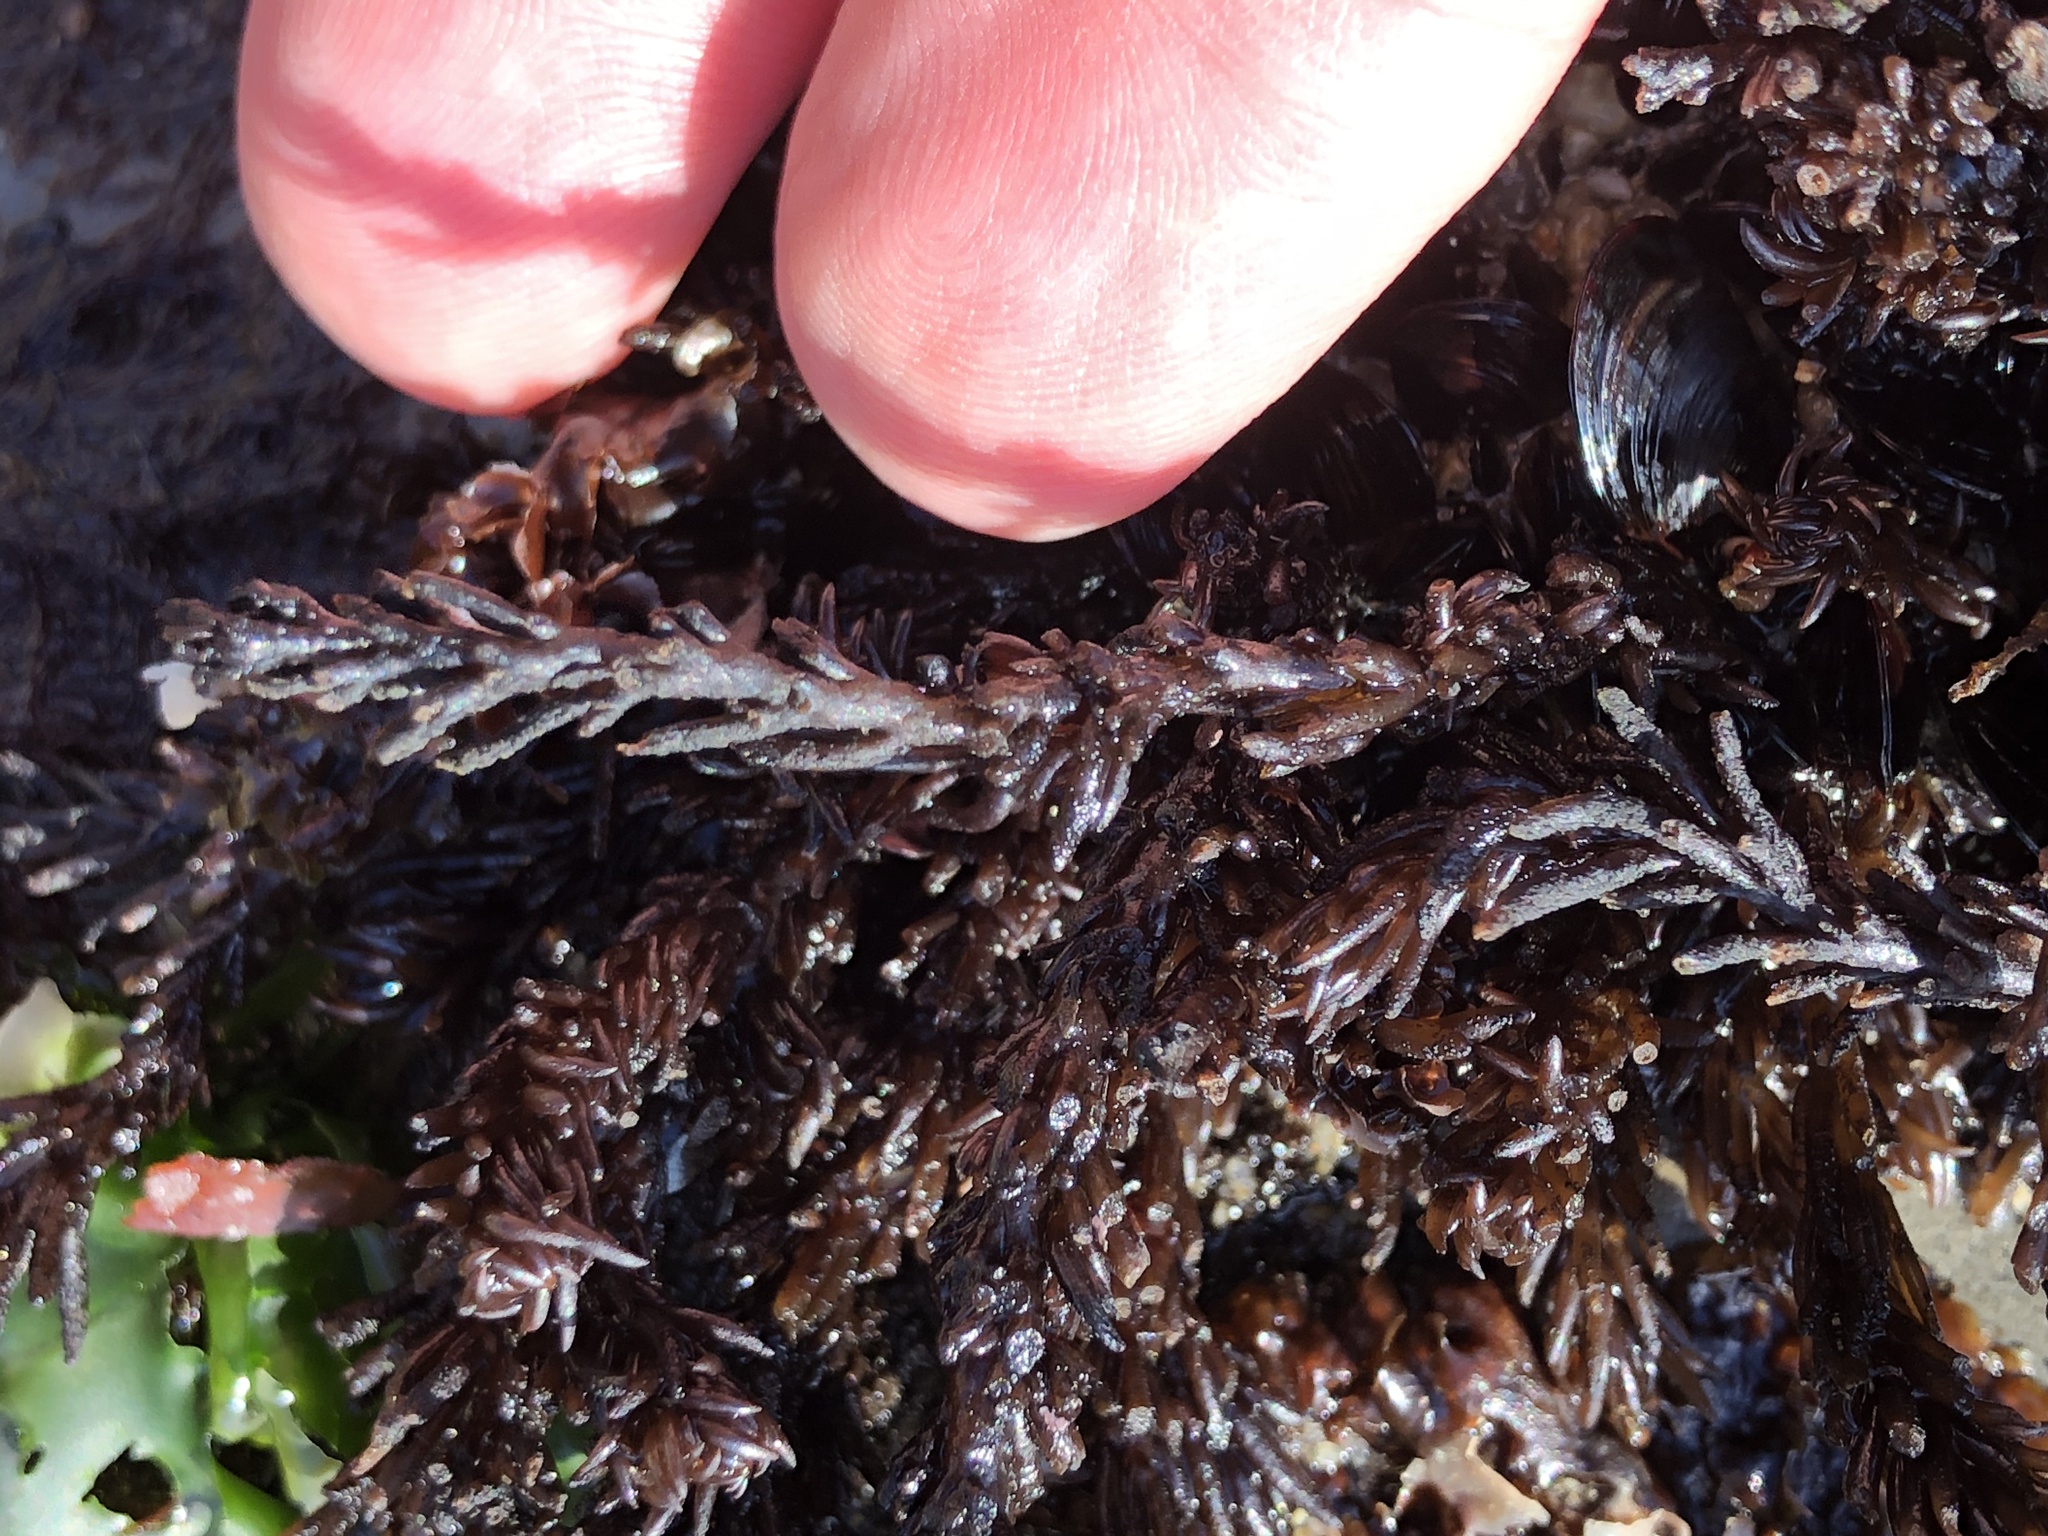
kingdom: Plantae
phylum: Rhodophyta
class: Florideophyceae
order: Ceramiales
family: Rhodomelaceae
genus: Neorhodomela
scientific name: Neorhodomela larix
